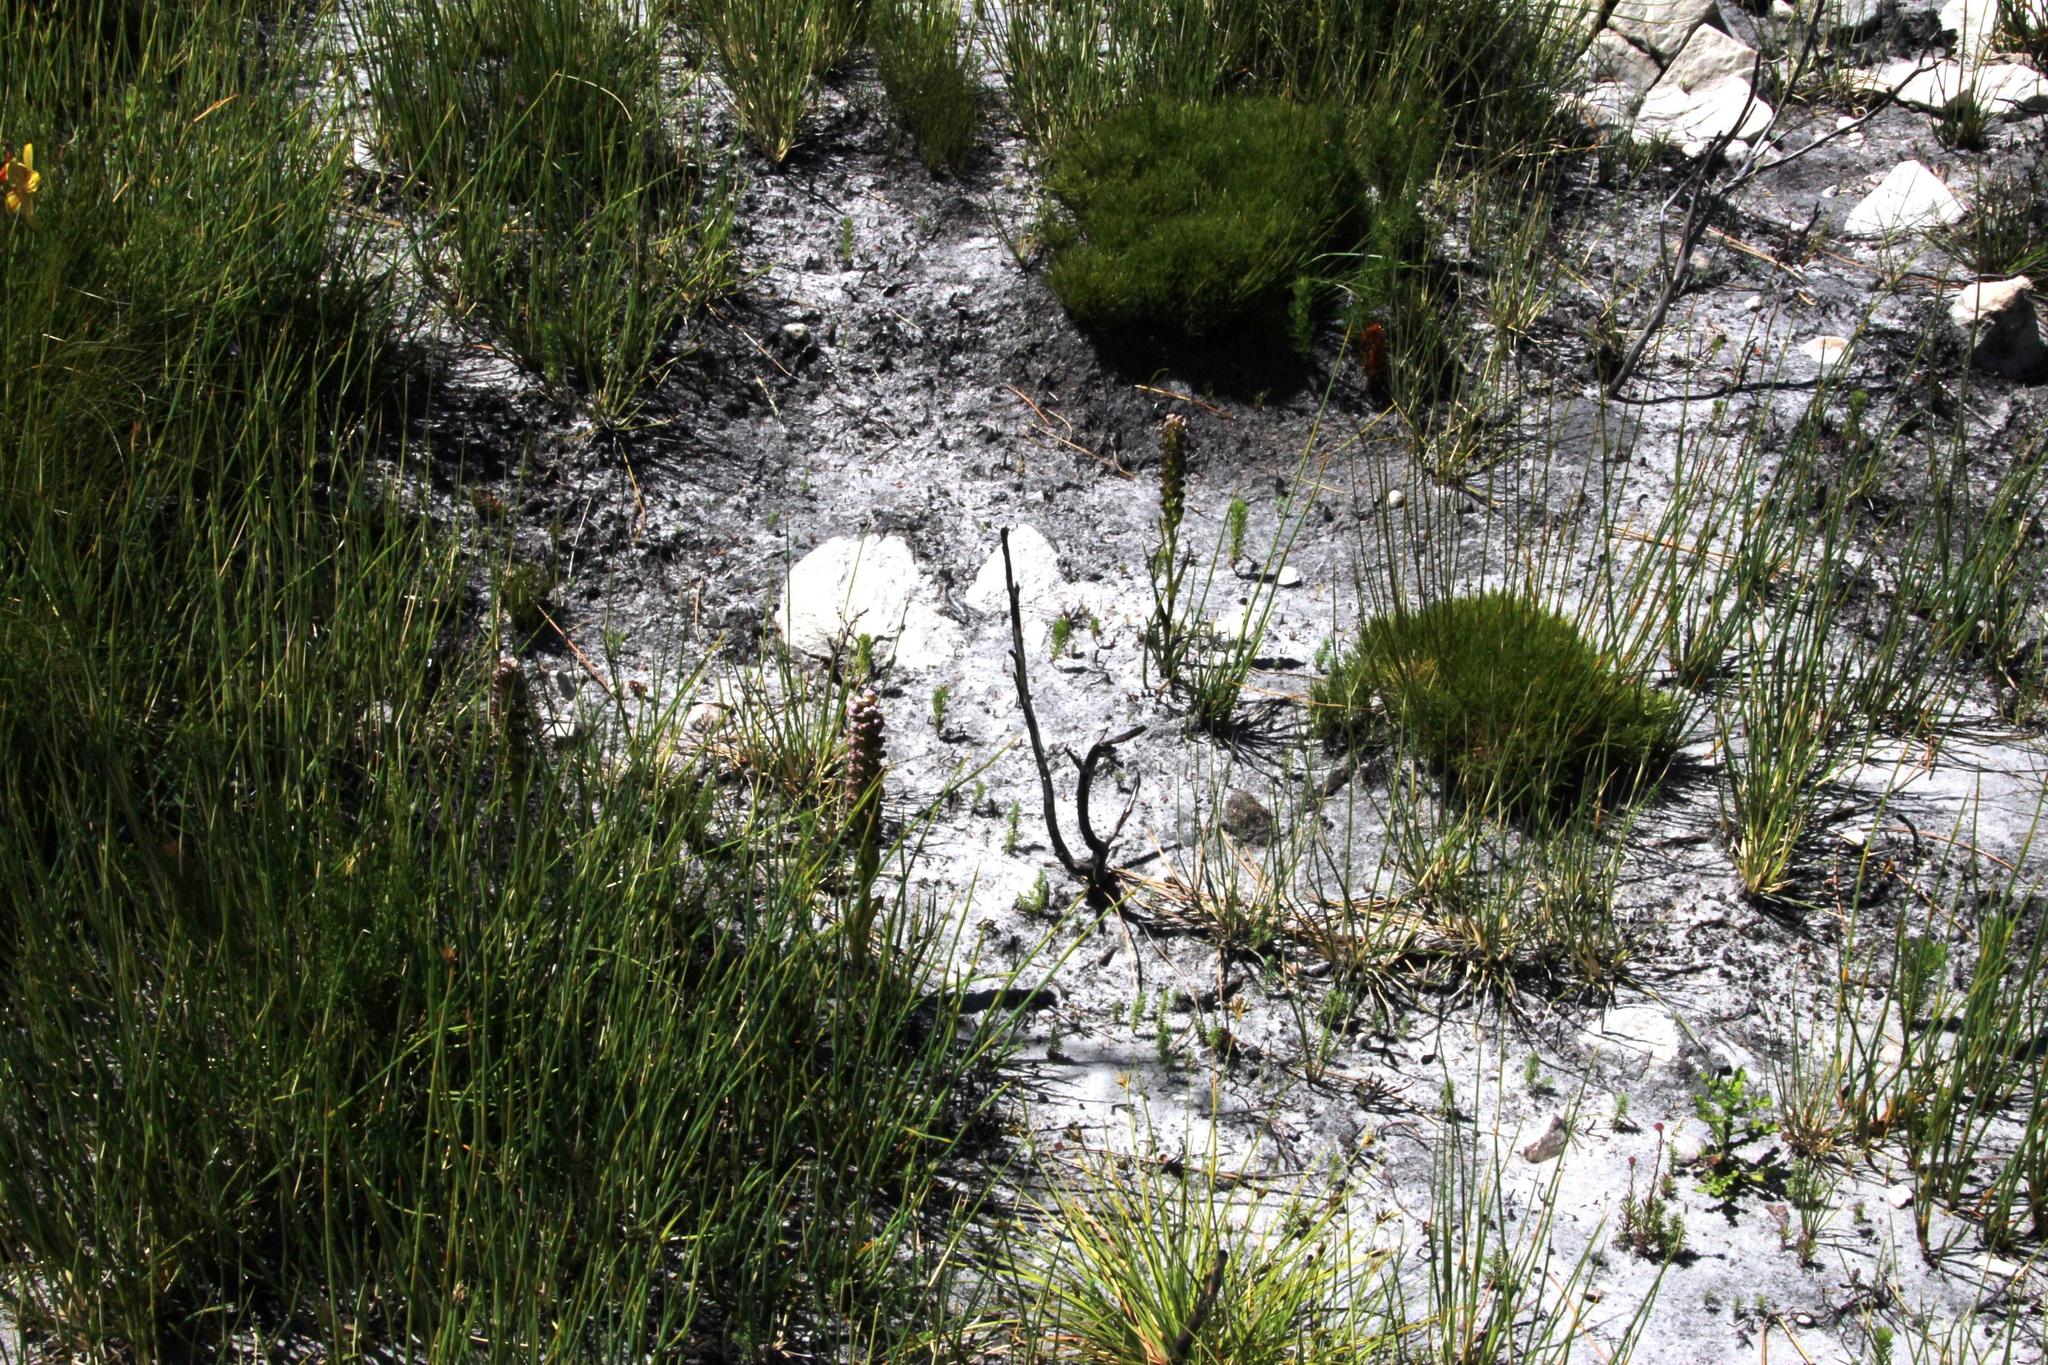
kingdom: Plantae
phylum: Tracheophyta
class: Liliopsida
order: Asparagales
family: Orchidaceae
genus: Evotella
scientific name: Evotella carnosa
